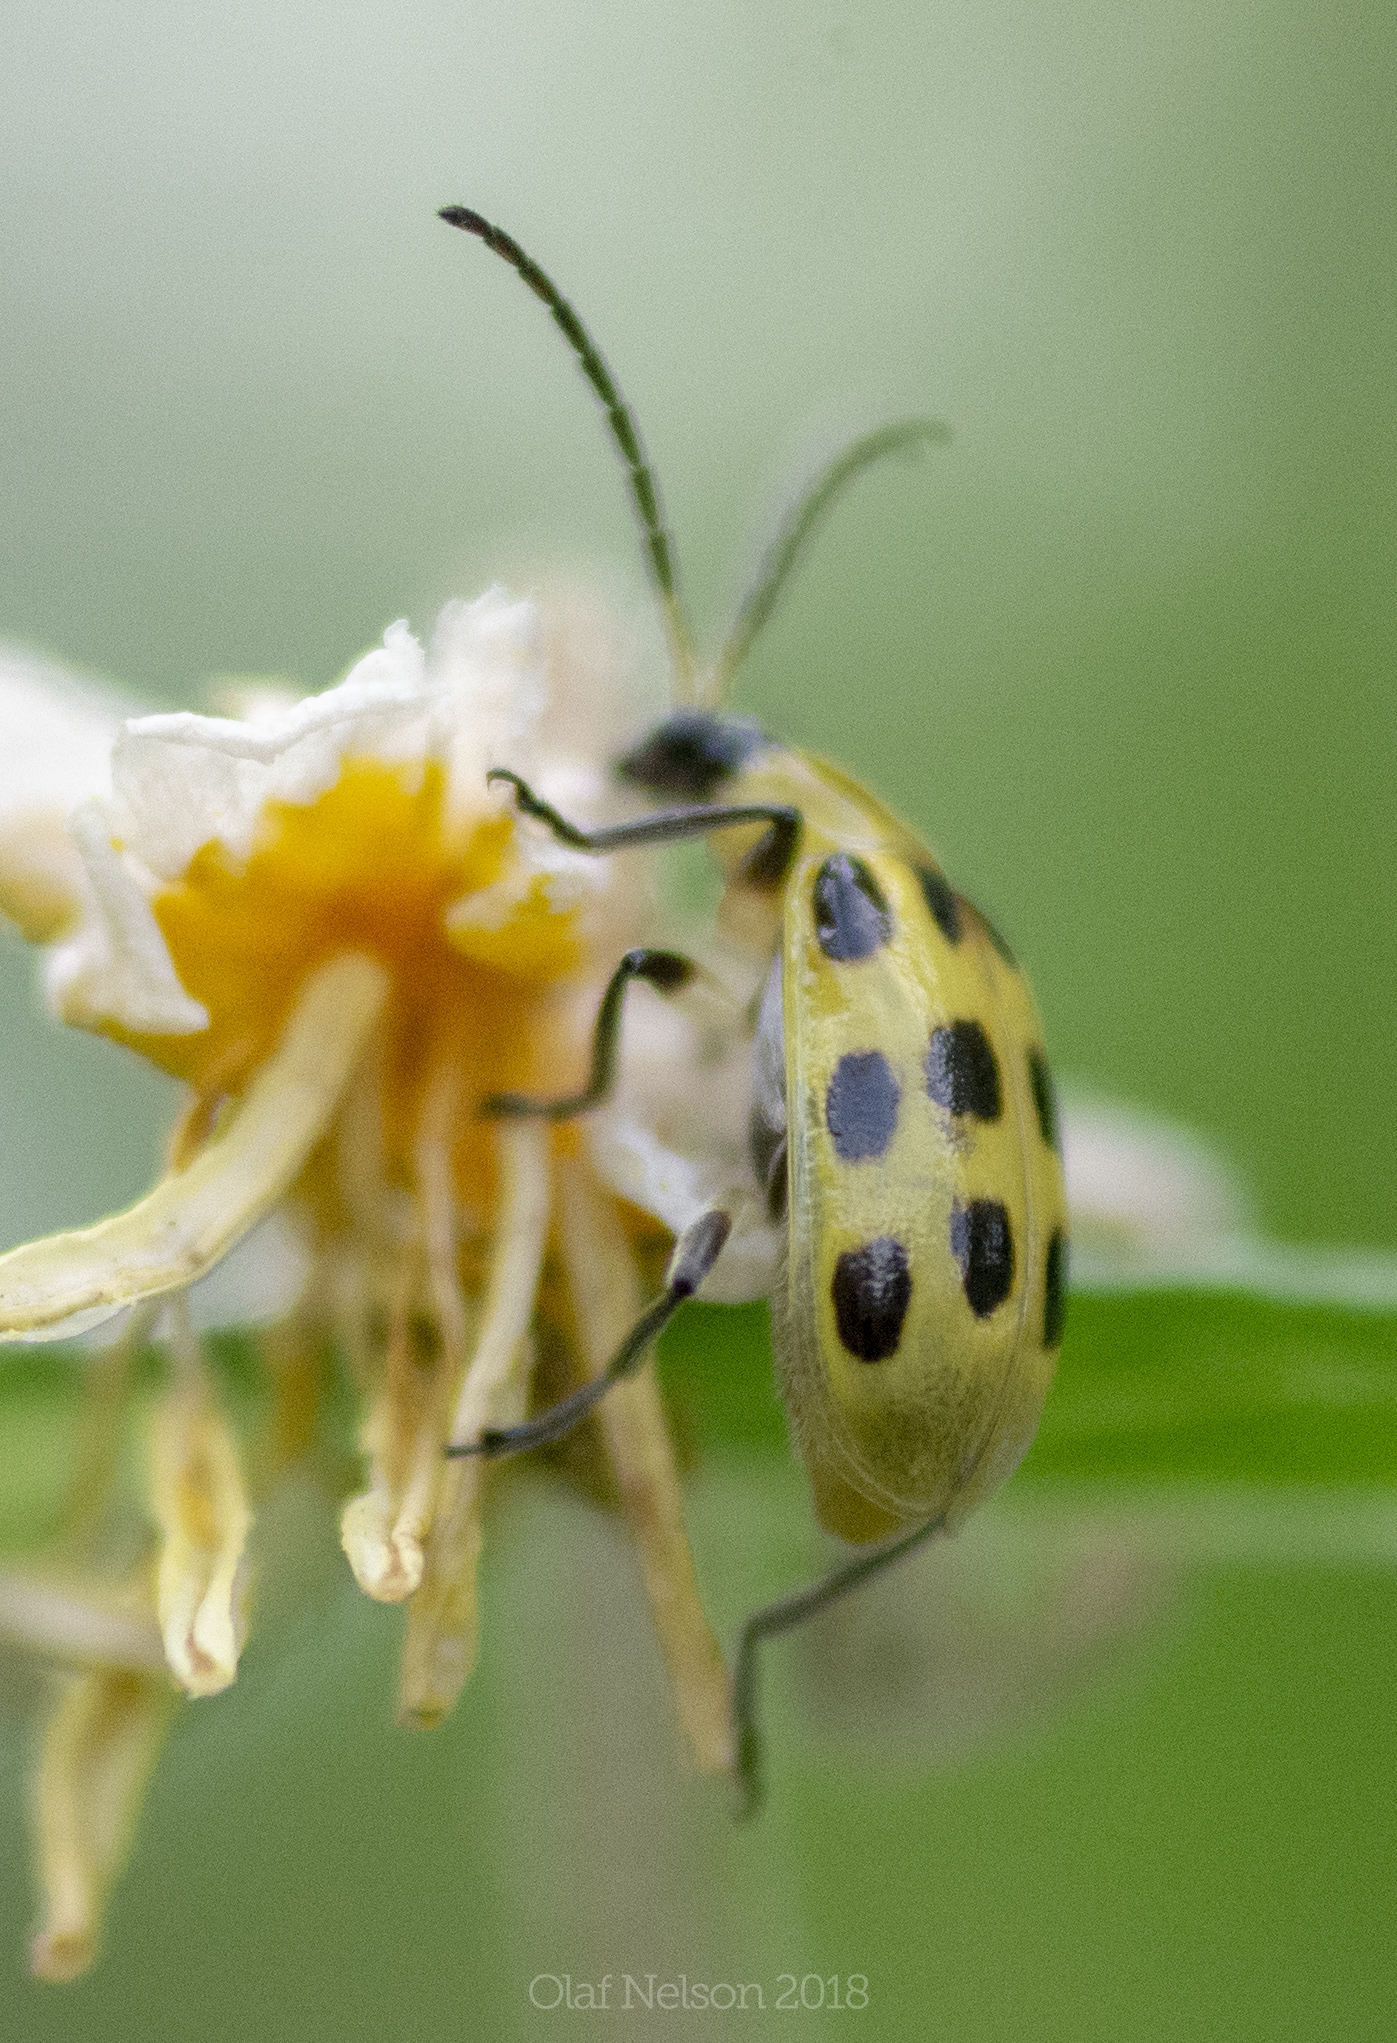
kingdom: Animalia
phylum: Arthropoda
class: Insecta
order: Coleoptera
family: Chrysomelidae
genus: Diabrotica
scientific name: Diabrotica undecimpunctata
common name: Spotted cucumber beetle
